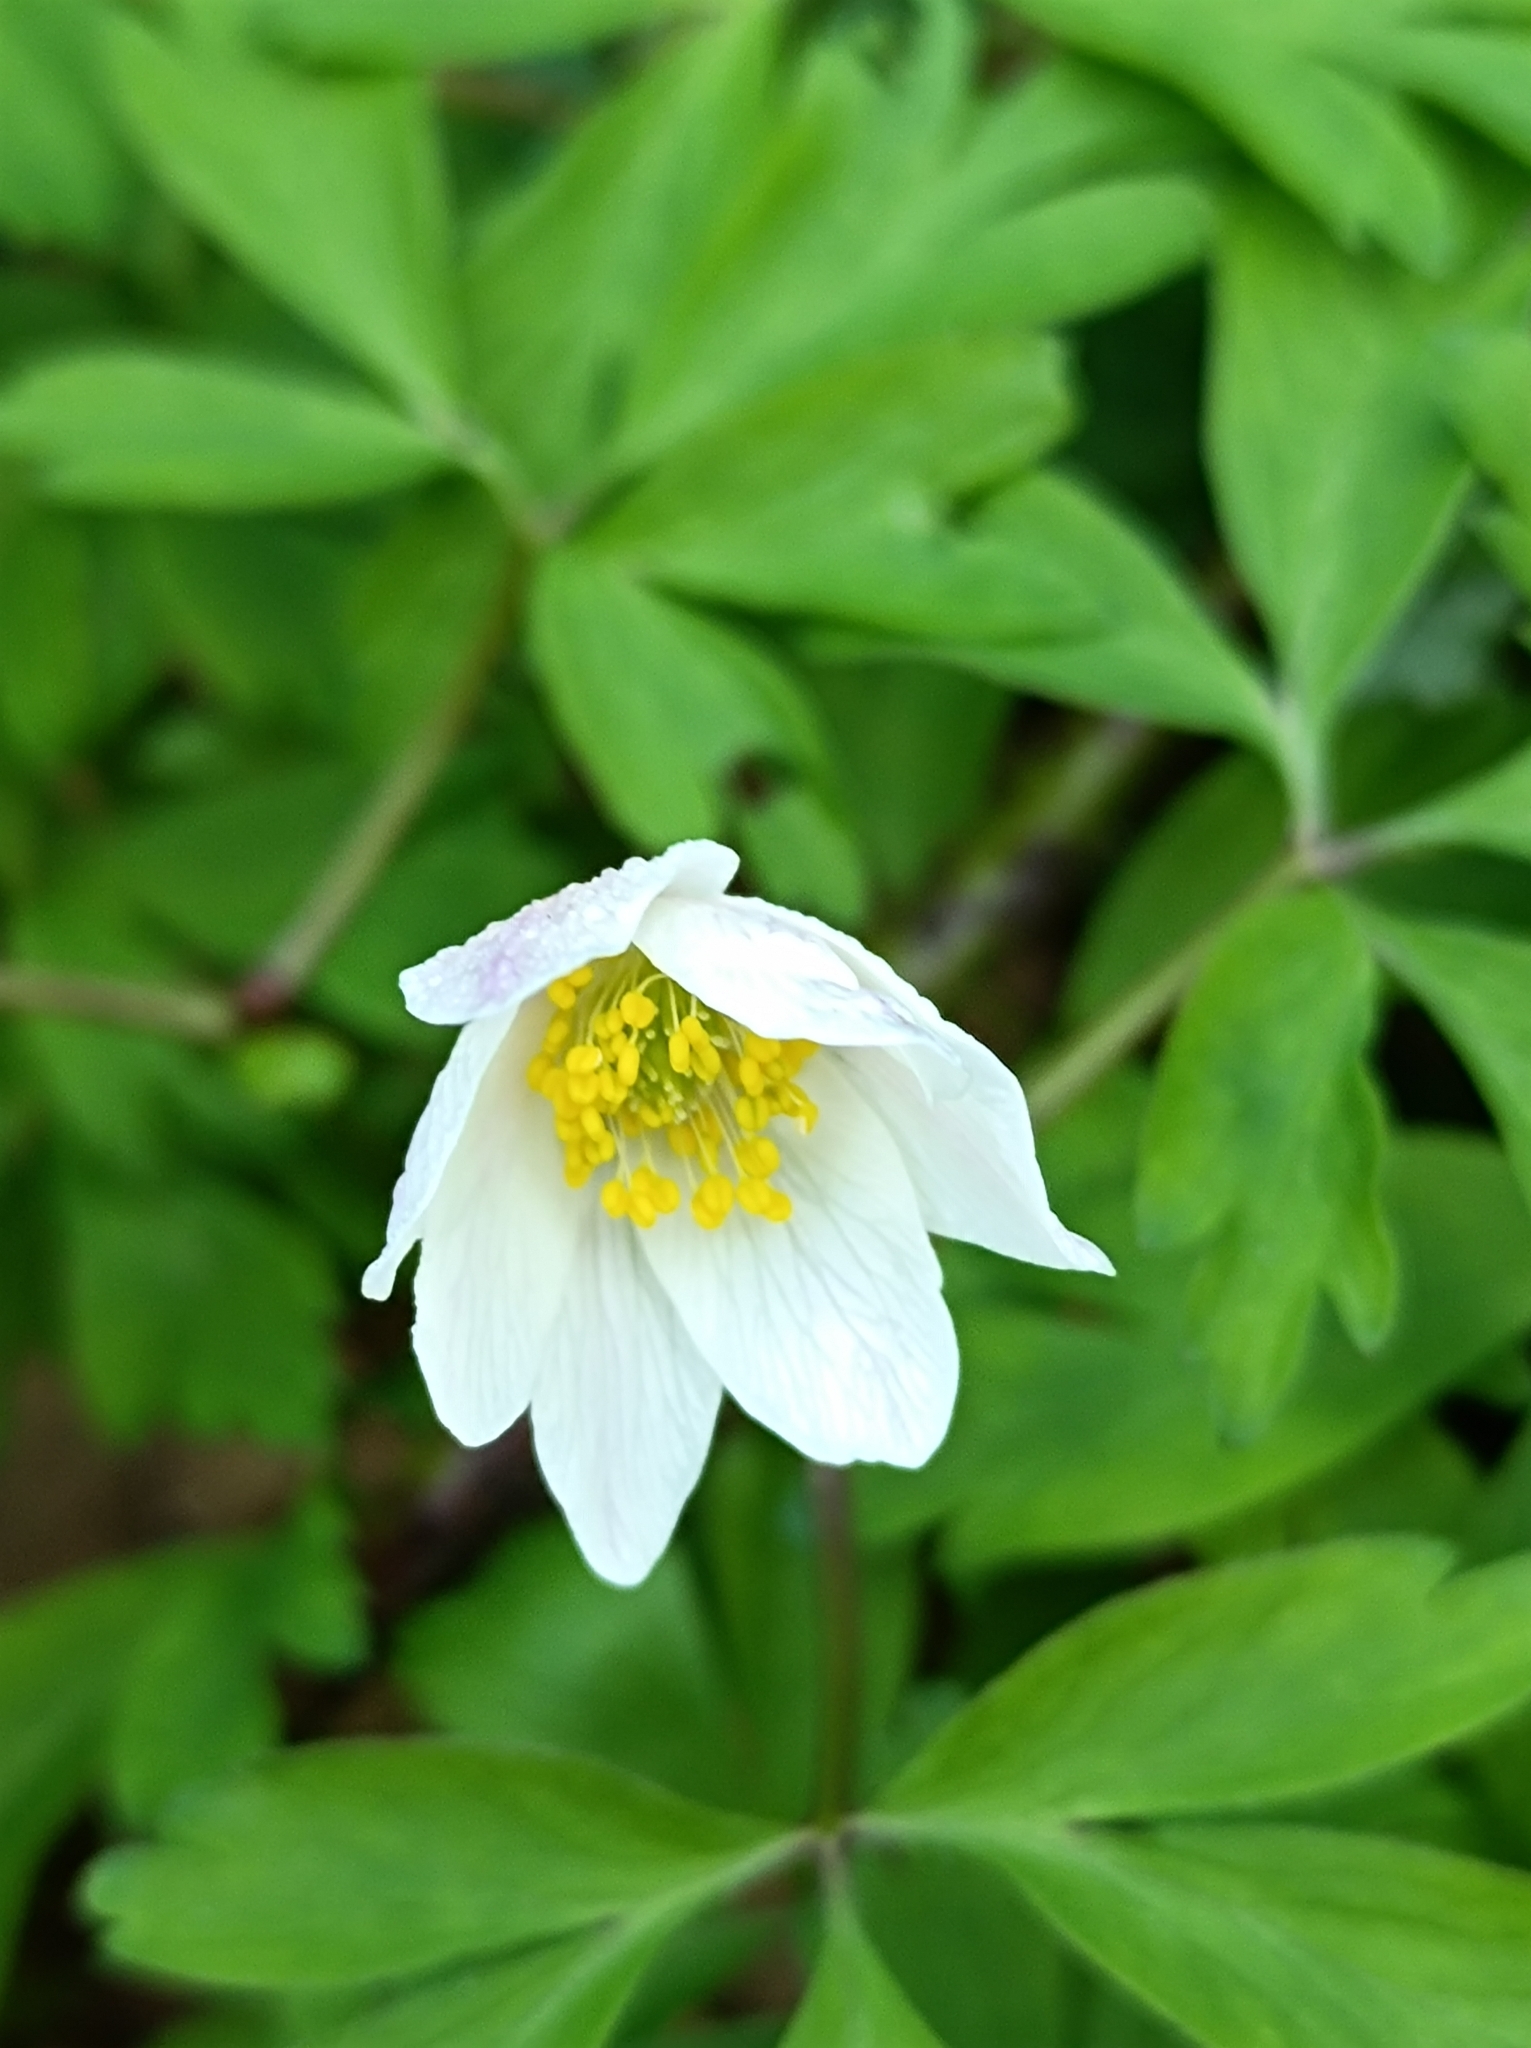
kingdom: Plantae
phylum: Tracheophyta
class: Magnoliopsida
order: Ranunculales
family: Ranunculaceae
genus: Anemone
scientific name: Anemone nemorosa
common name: Wood anemone
